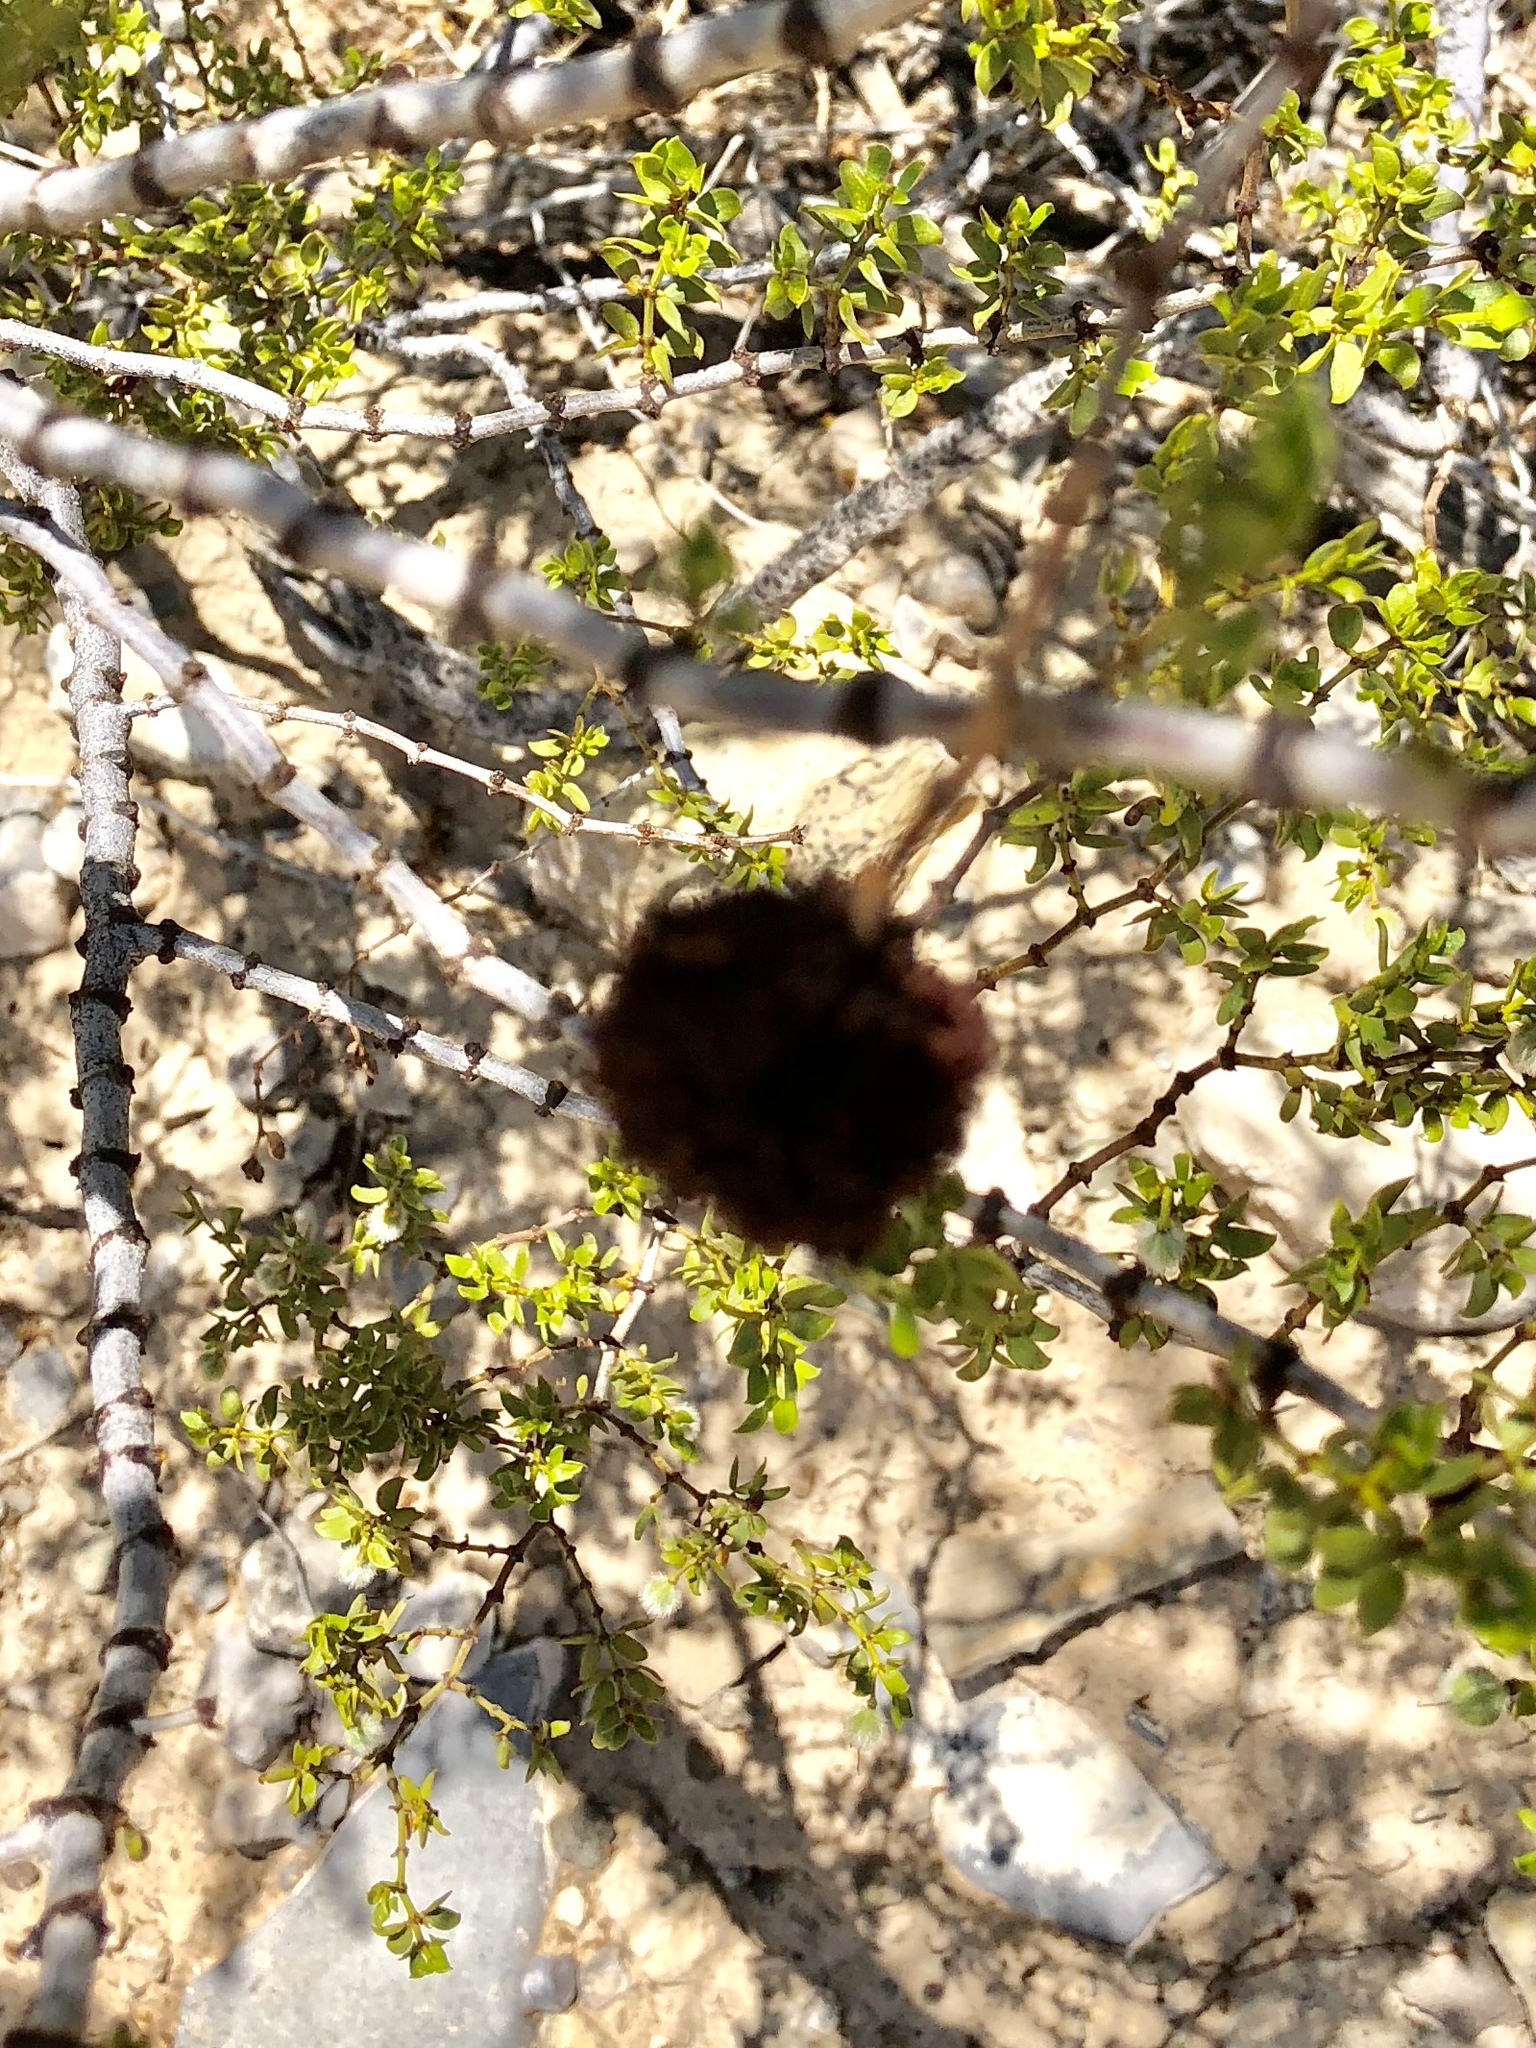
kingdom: Animalia
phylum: Arthropoda
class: Insecta
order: Diptera
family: Cecidomyiidae
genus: Asphondylia
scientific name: Asphondylia auripila
